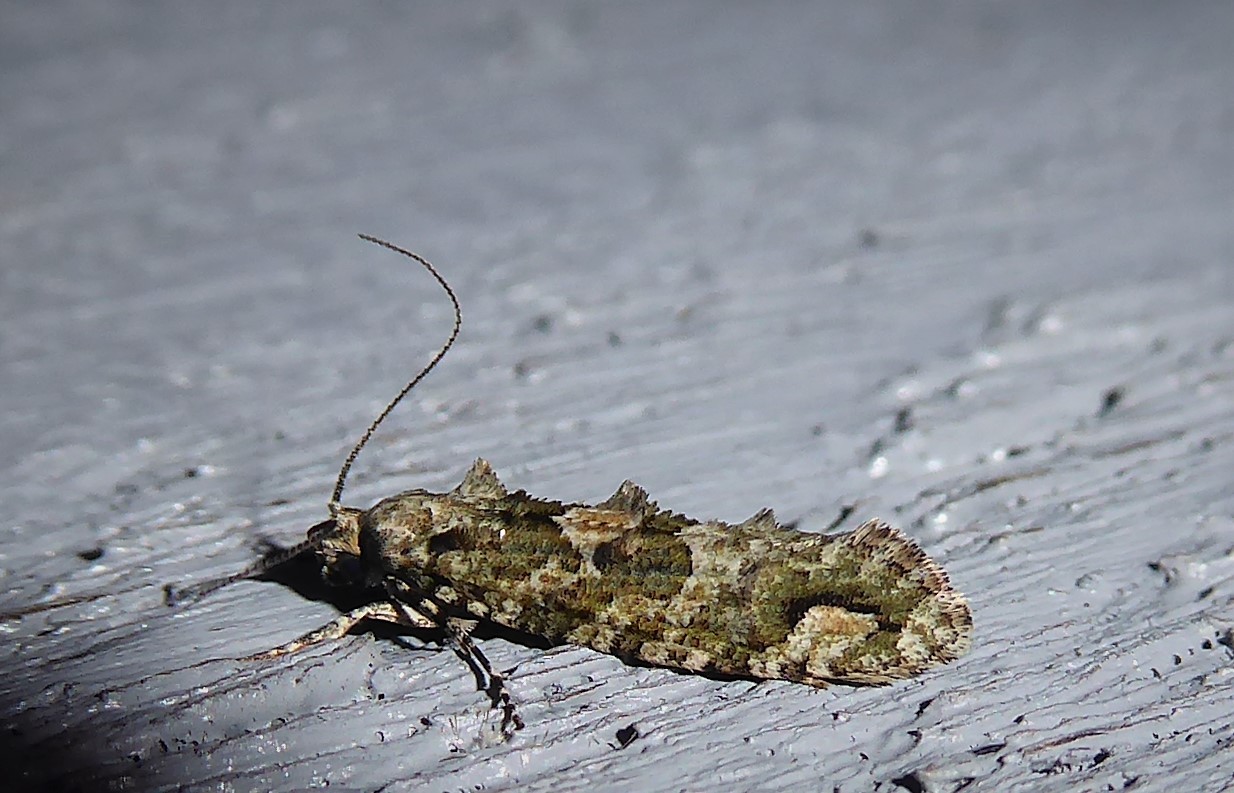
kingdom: Animalia
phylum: Arthropoda
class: Insecta
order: Lepidoptera
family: Tineidae
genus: Lysiphragma
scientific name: Lysiphragma howesii
